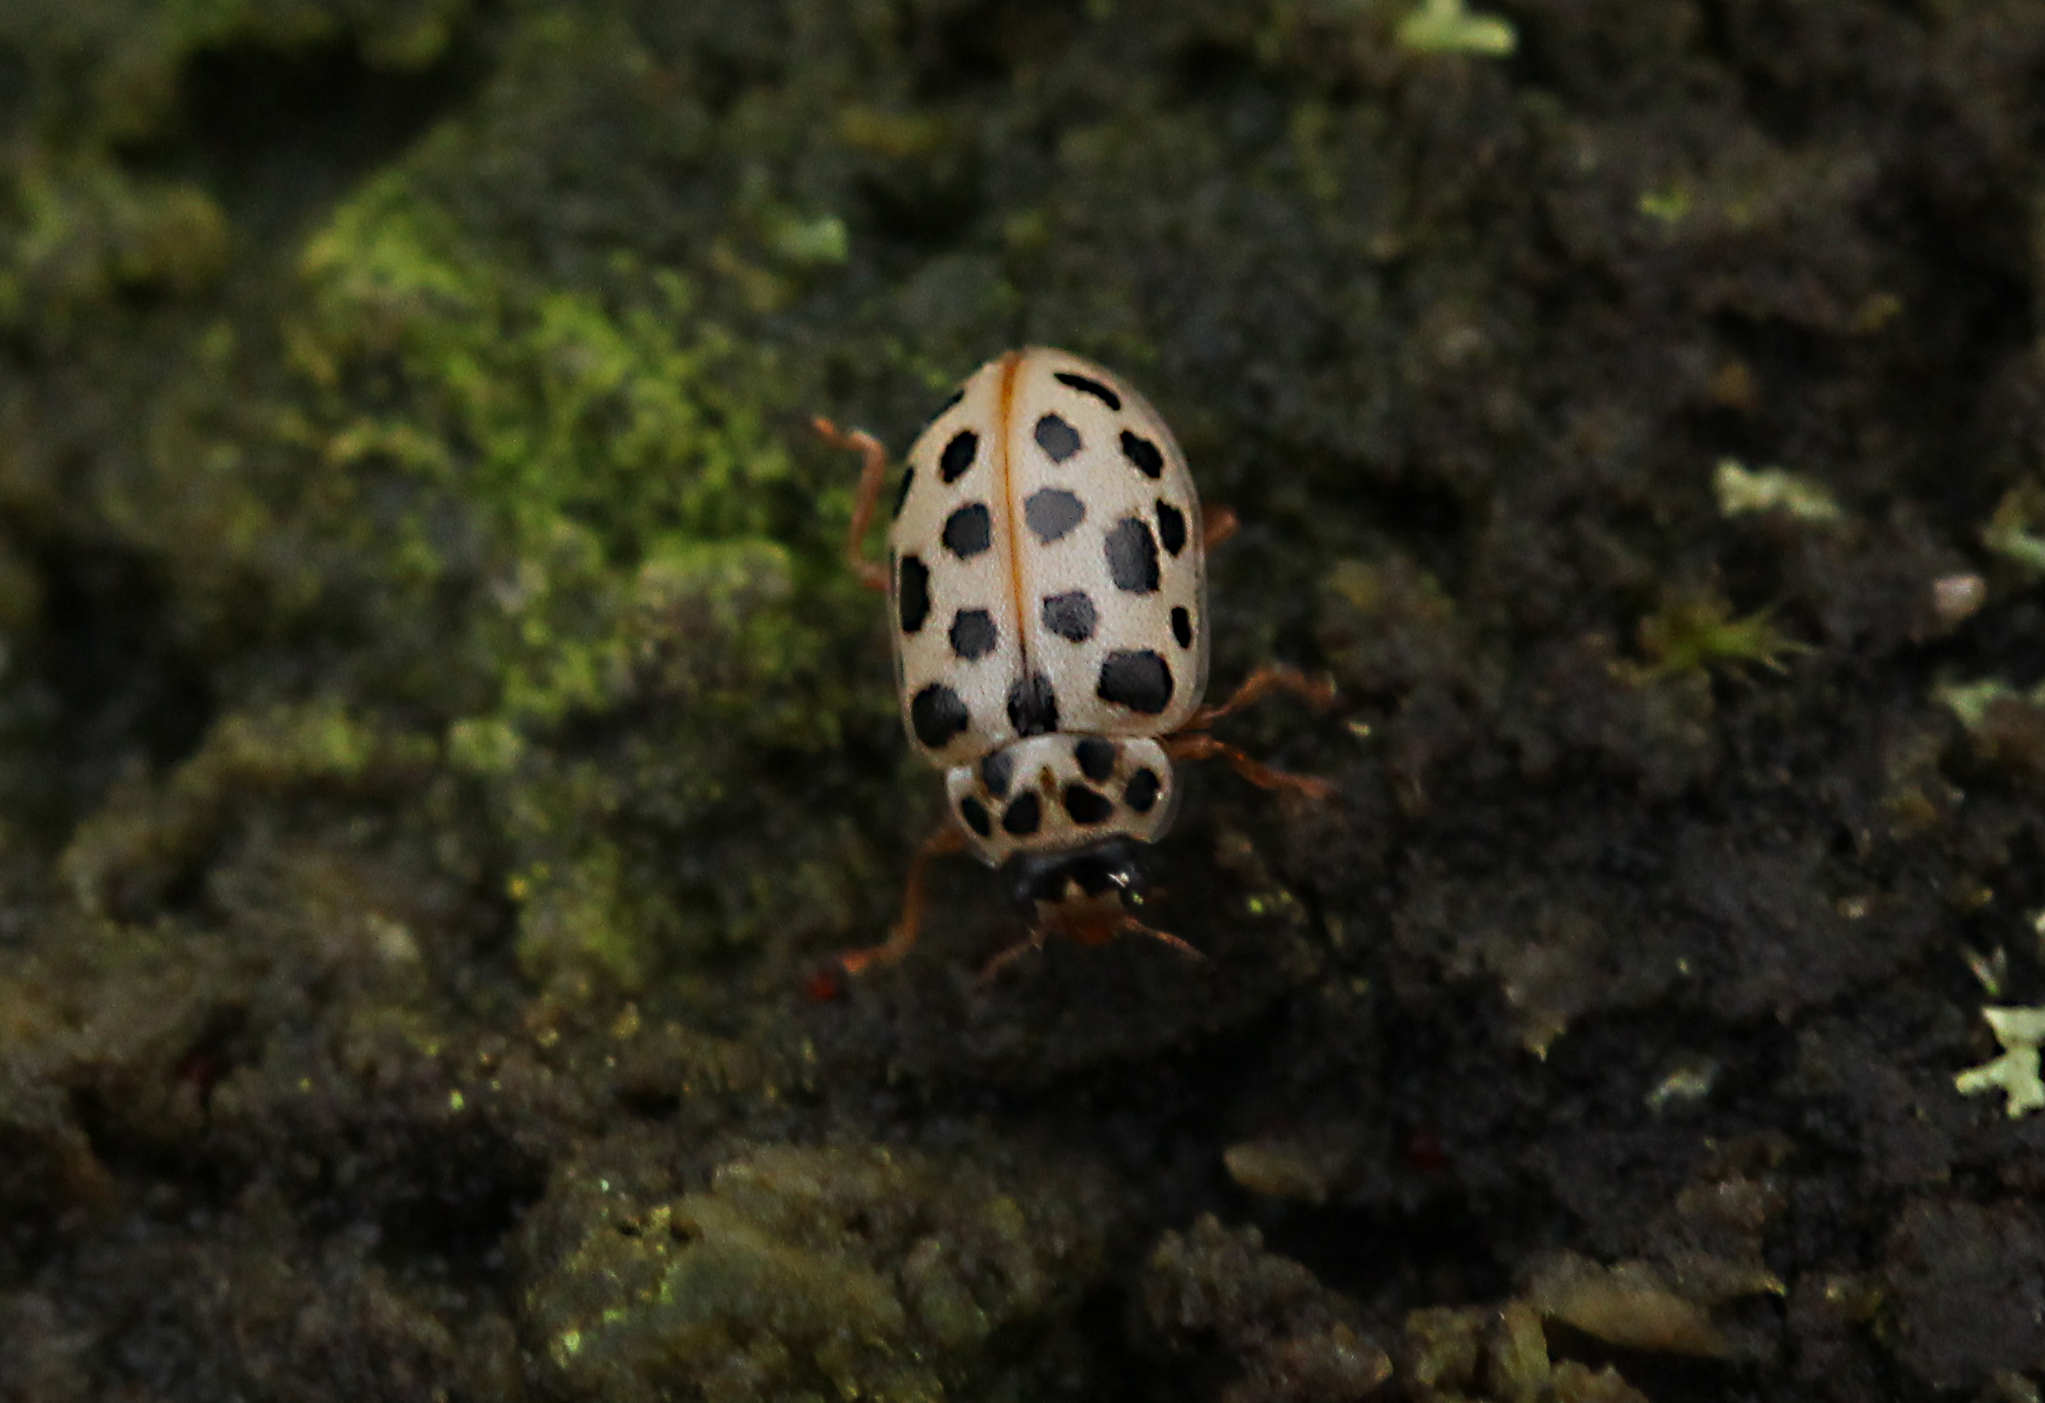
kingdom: Animalia
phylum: Arthropoda
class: Insecta
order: Coleoptera
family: Coccinellidae
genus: Anisosticta
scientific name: Anisosticta novemdecimpunctata
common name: Water ladybird
